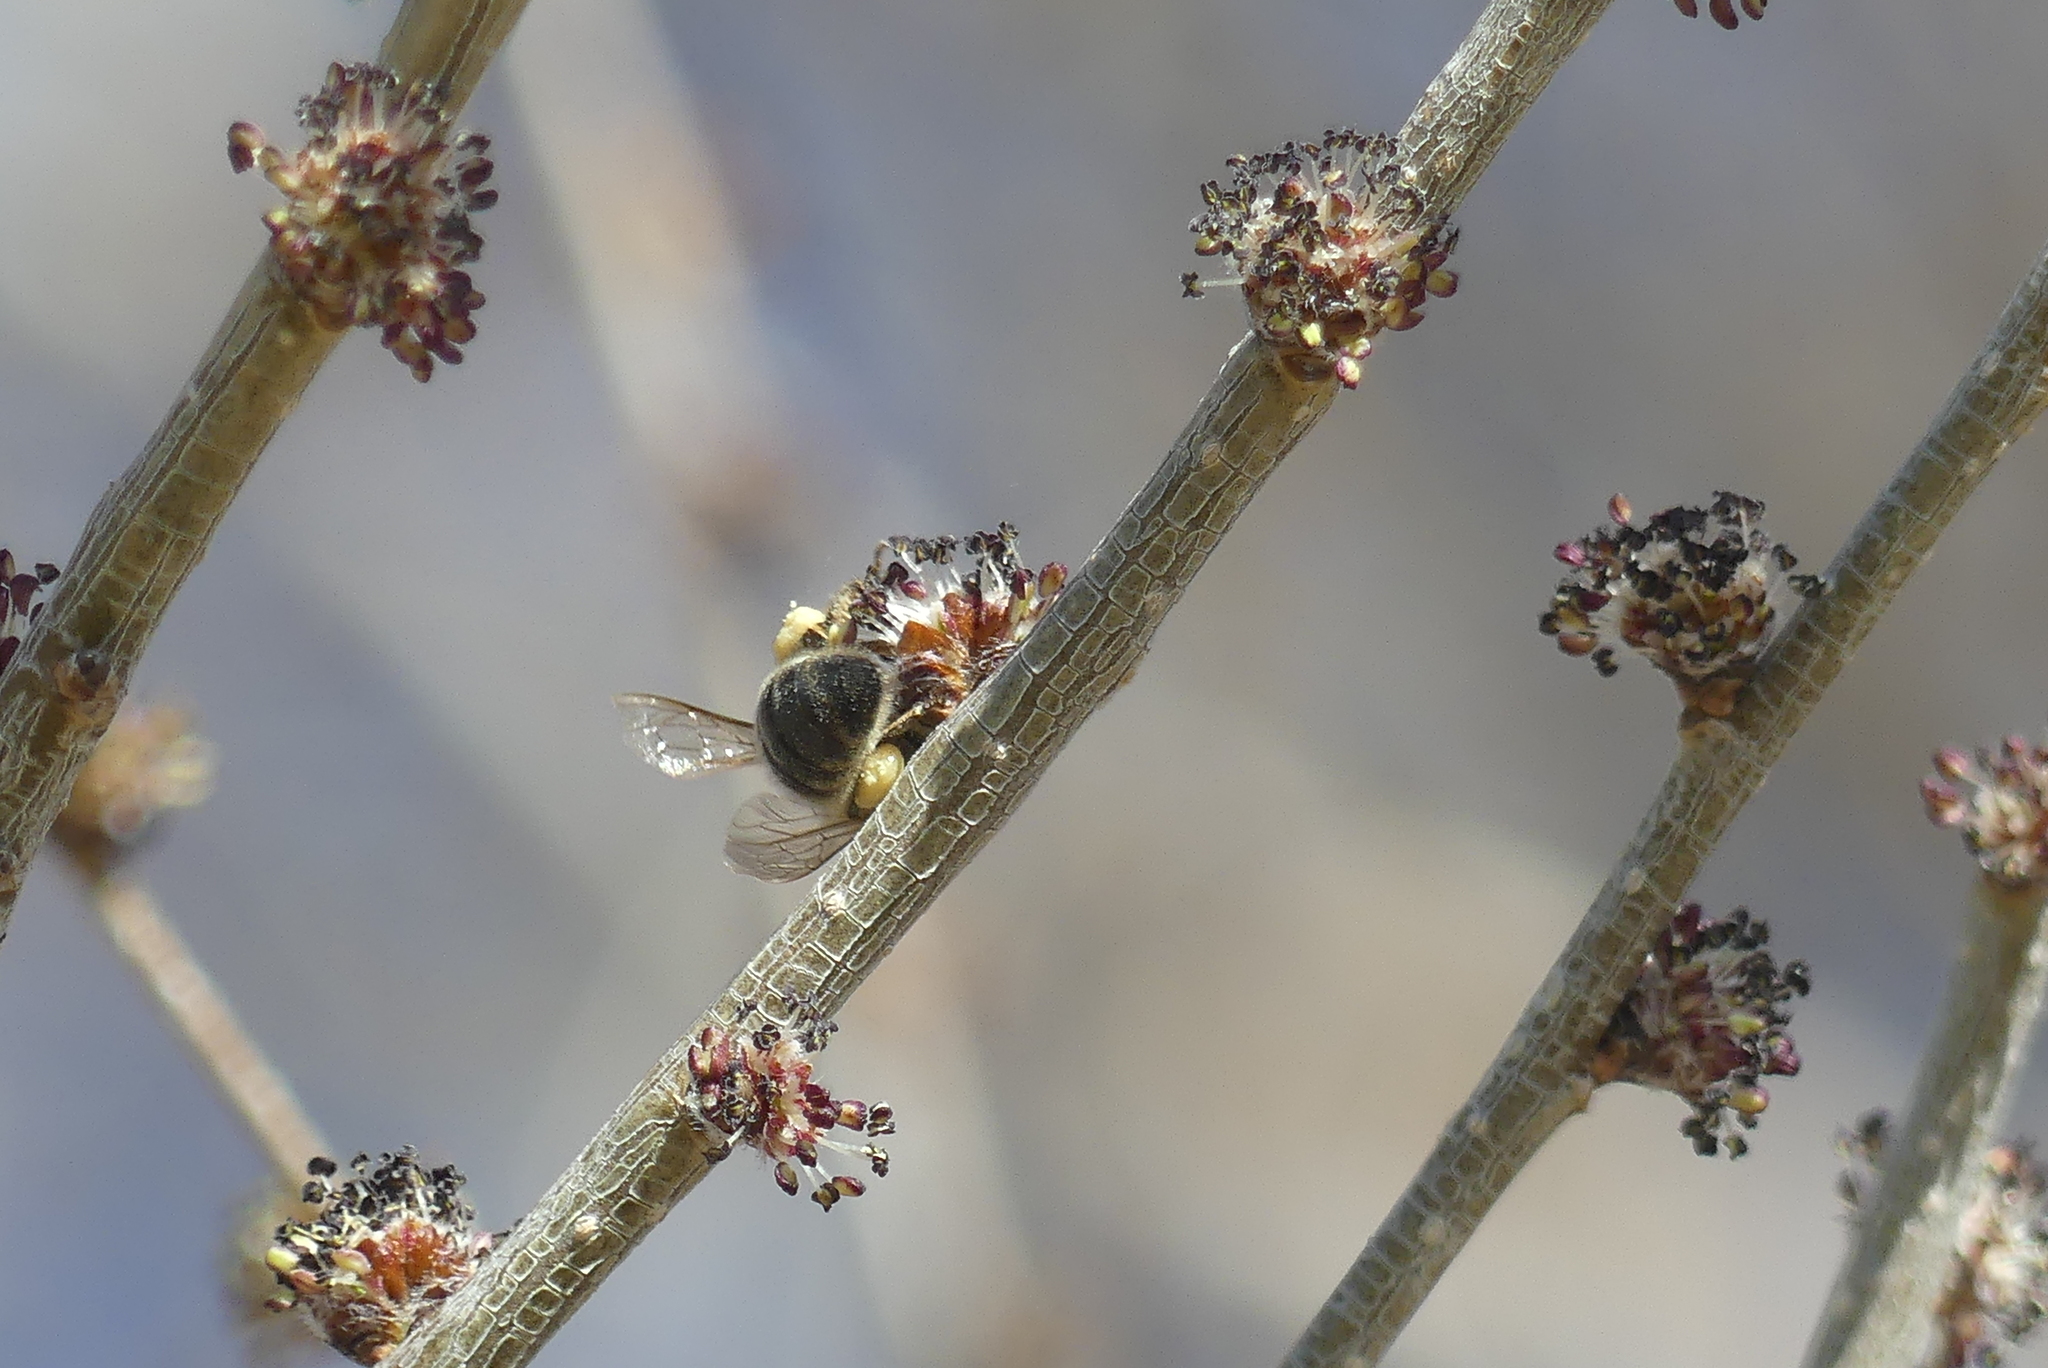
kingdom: Animalia
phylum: Arthropoda
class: Insecta
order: Hymenoptera
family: Apidae
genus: Apis
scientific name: Apis mellifera
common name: Honey bee
